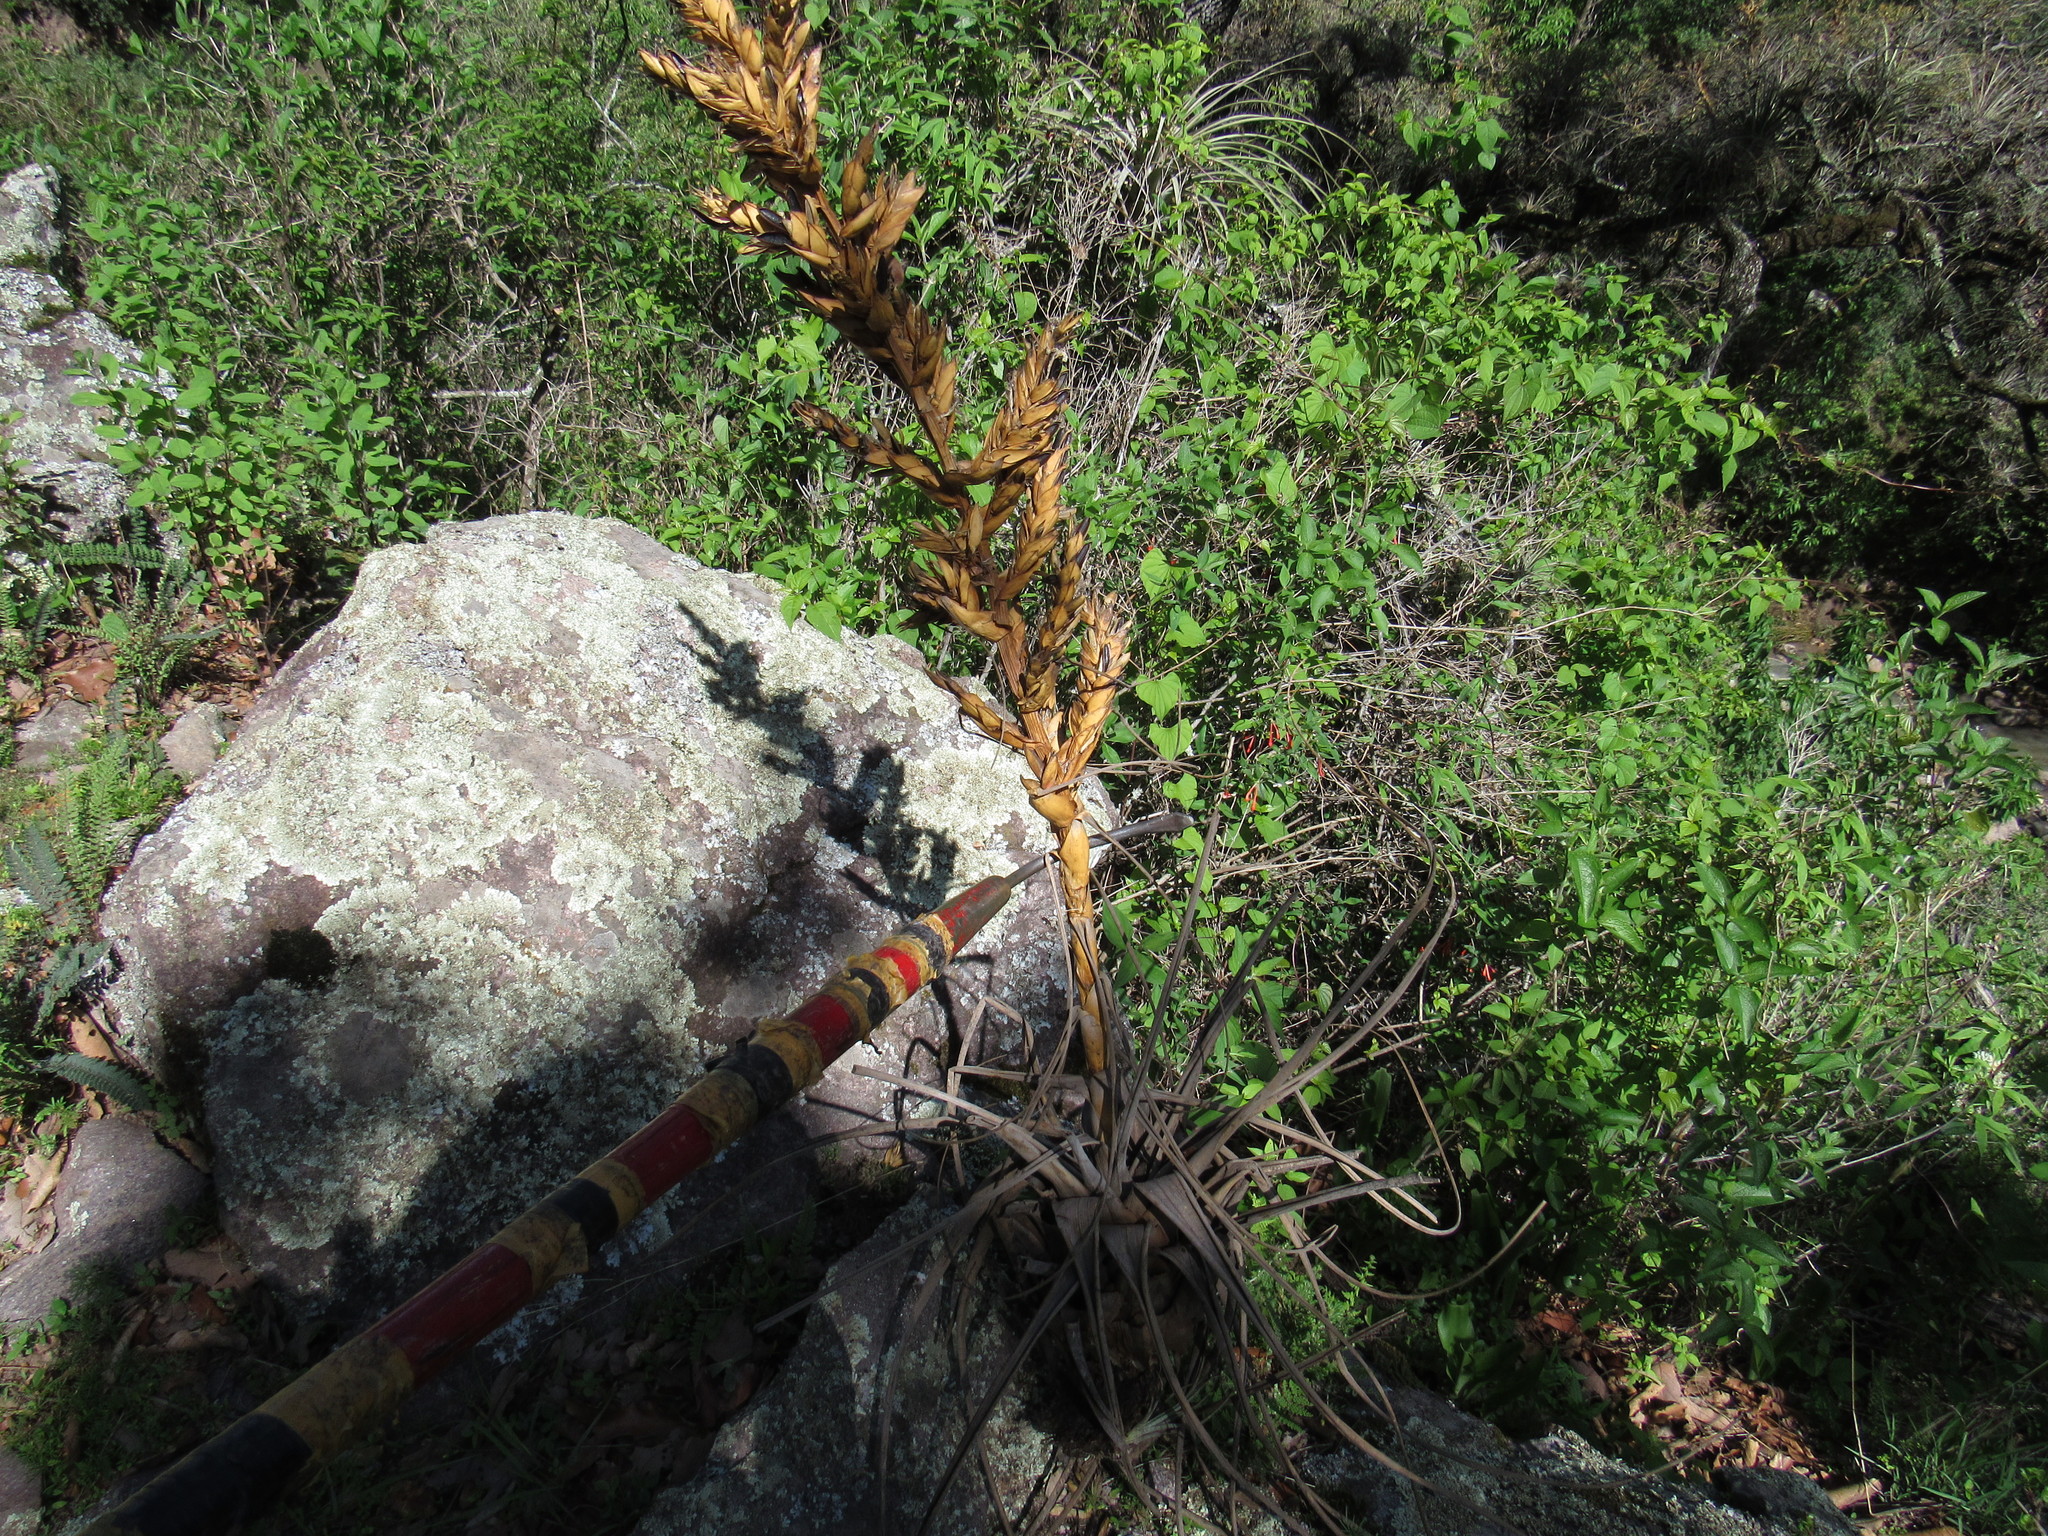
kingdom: Plantae
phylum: Tracheophyta
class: Liliopsida
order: Poales
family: Bromeliaceae
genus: Tillandsia
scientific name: Tillandsia calothyrsus
